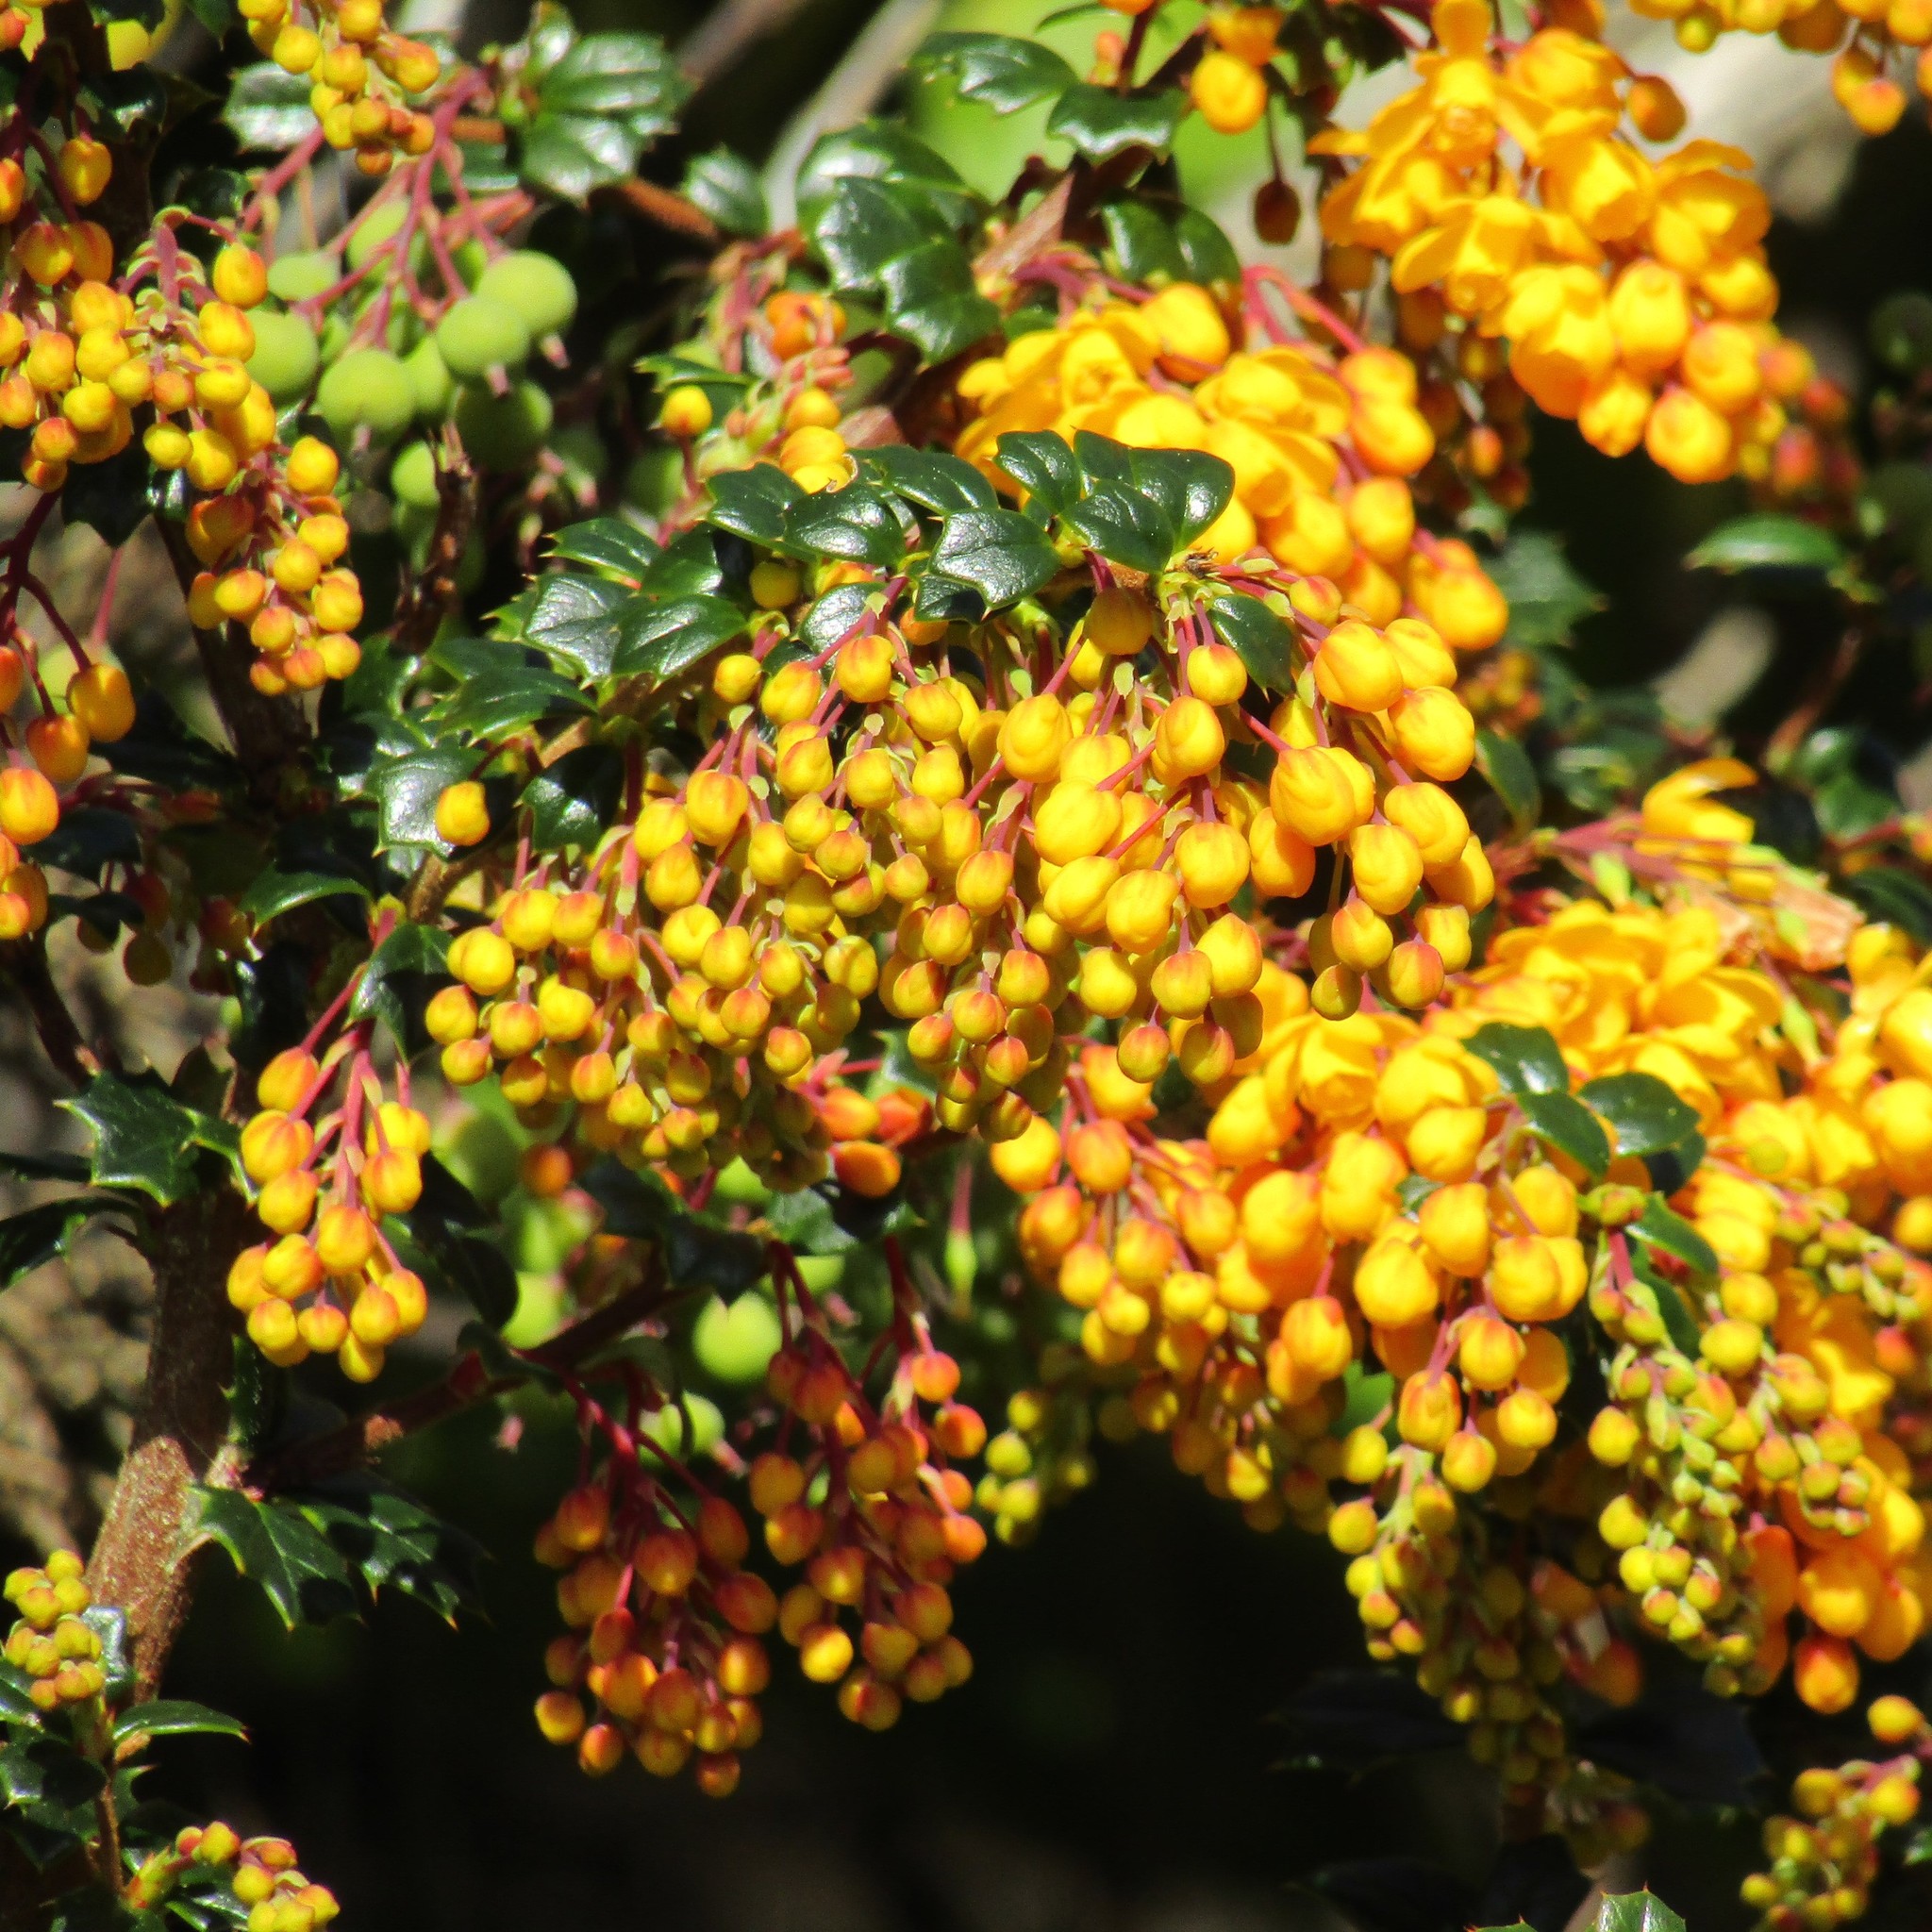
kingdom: Plantae
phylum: Tracheophyta
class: Magnoliopsida
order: Ranunculales
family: Berberidaceae
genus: Berberis
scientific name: Berberis darwinii
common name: Darwin's barberry
